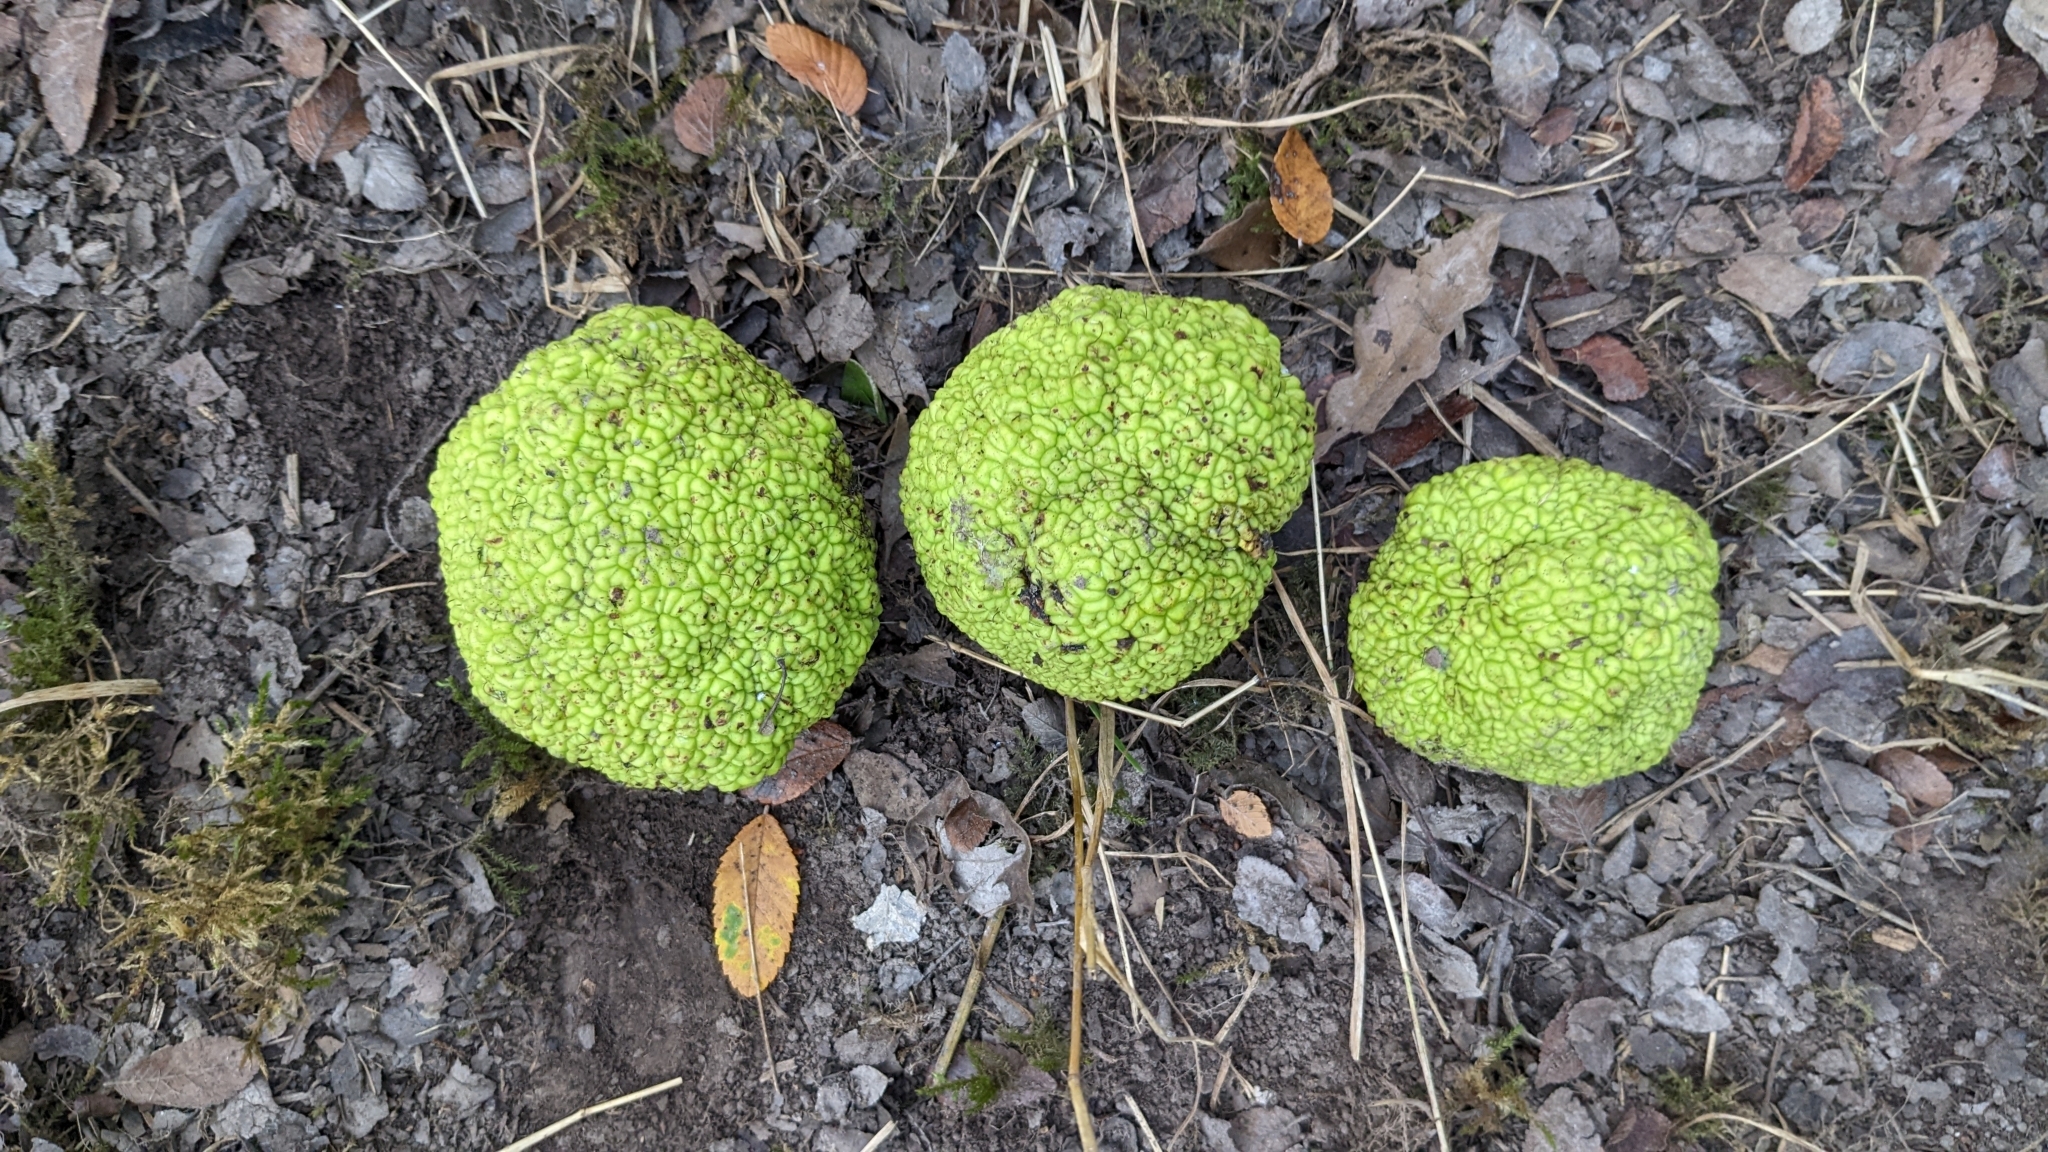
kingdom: Plantae
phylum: Tracheophyta
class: Magnoliopsida
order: Rosales
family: Moraceae
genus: Maclura
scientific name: Maclura pomifera
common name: Osage-orange
